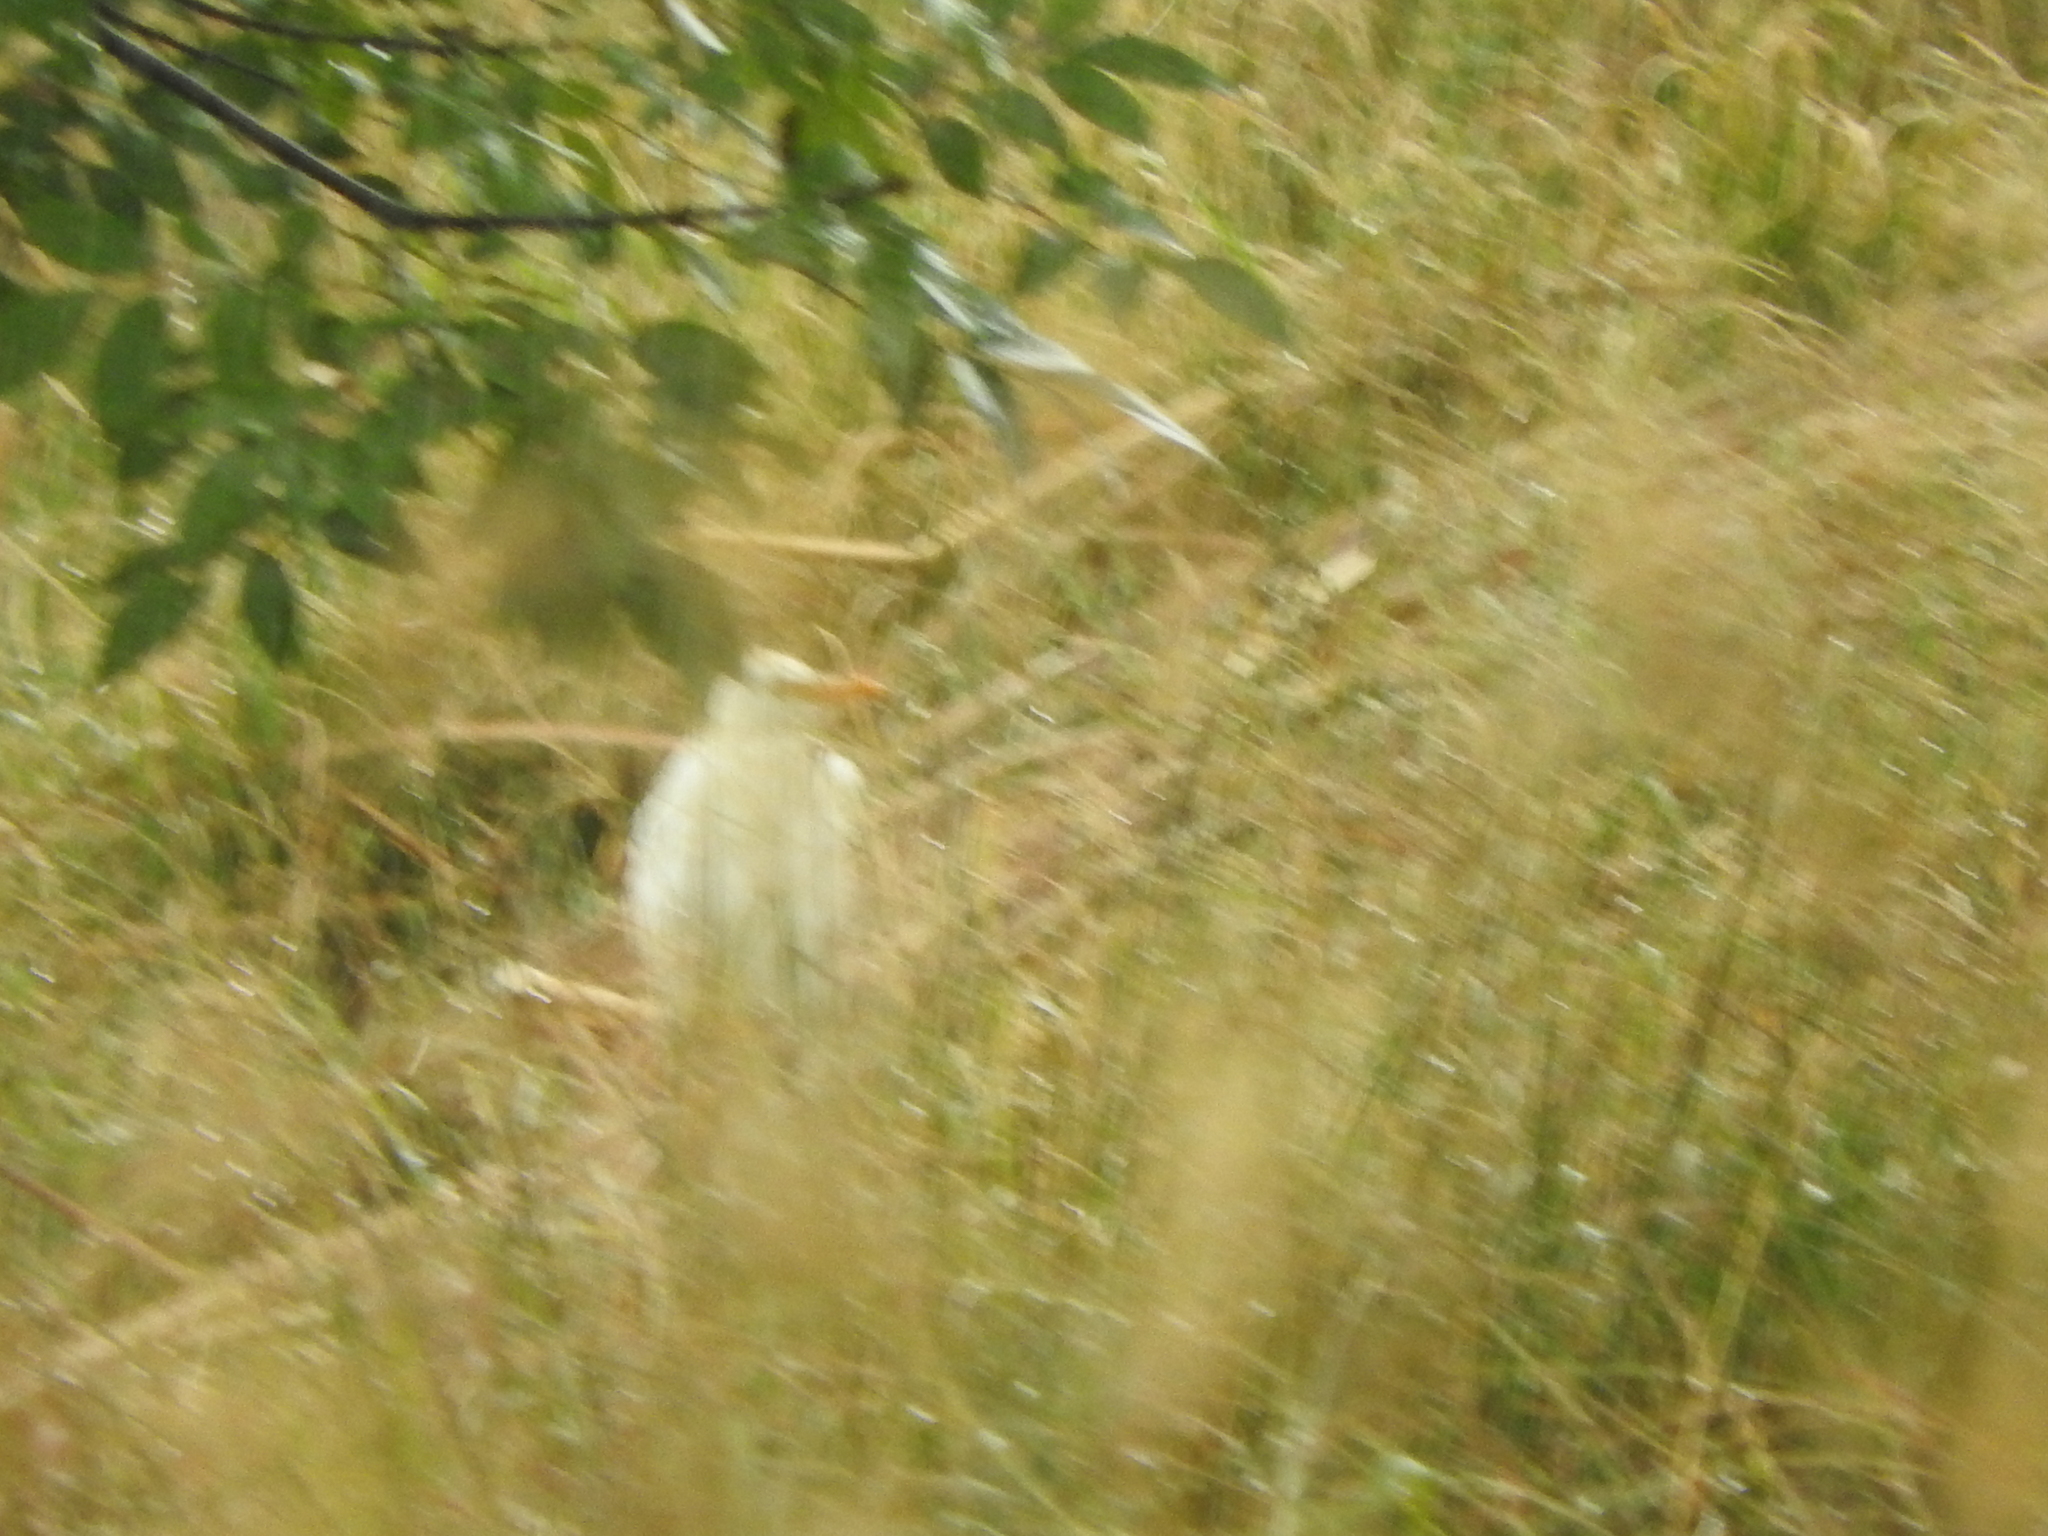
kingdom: Animalia
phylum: Chordata
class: Aves
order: Pelecaniformes
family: Ardeidae
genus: Bubulcus
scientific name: Bubulcus ibis
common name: Cattle egret
